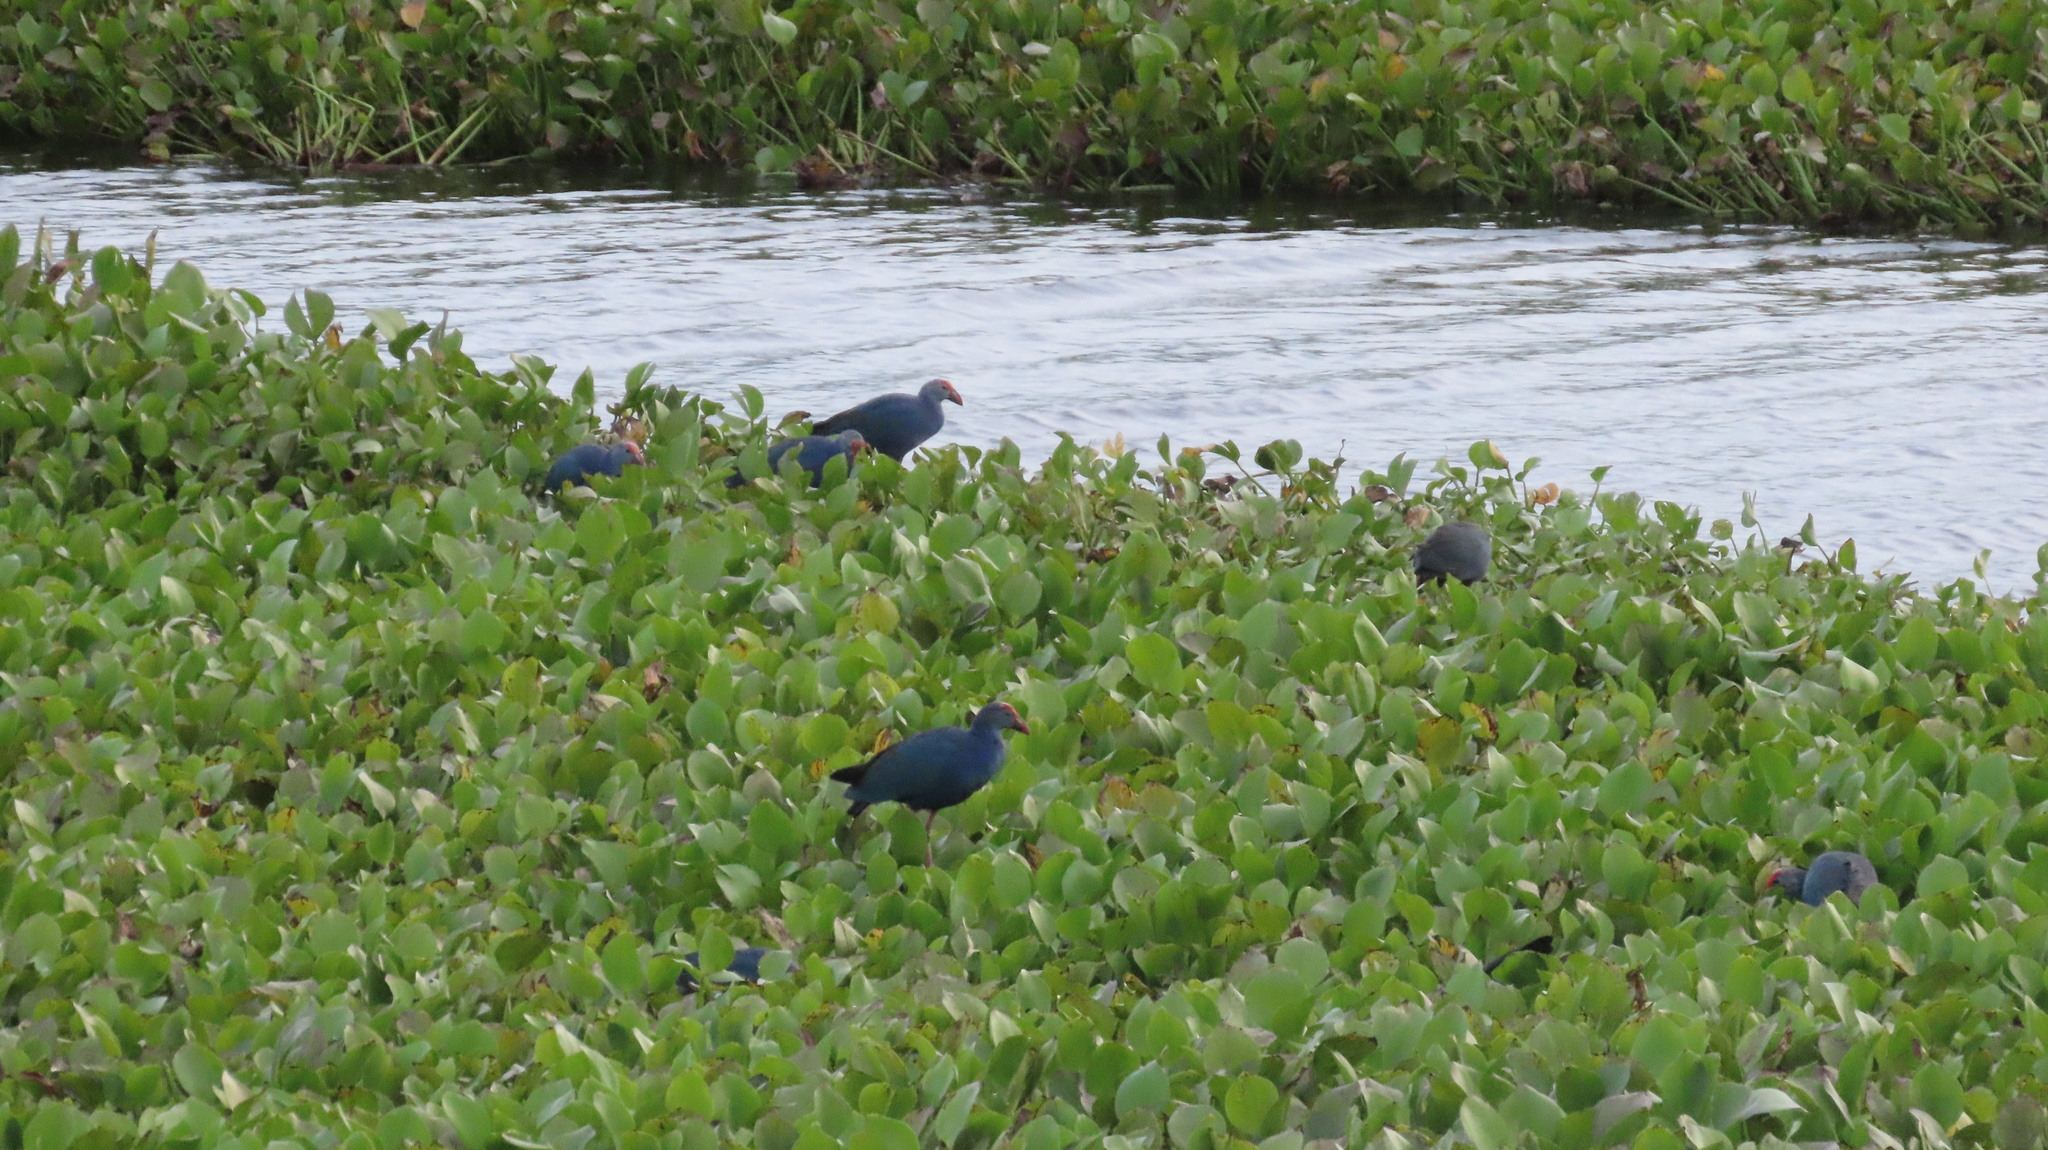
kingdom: Animalia
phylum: Chordata
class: Aves
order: Gruiformes
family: Rallidae
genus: Porphyrio
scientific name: Porphyrio porphyrio
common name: Purple swamphen
